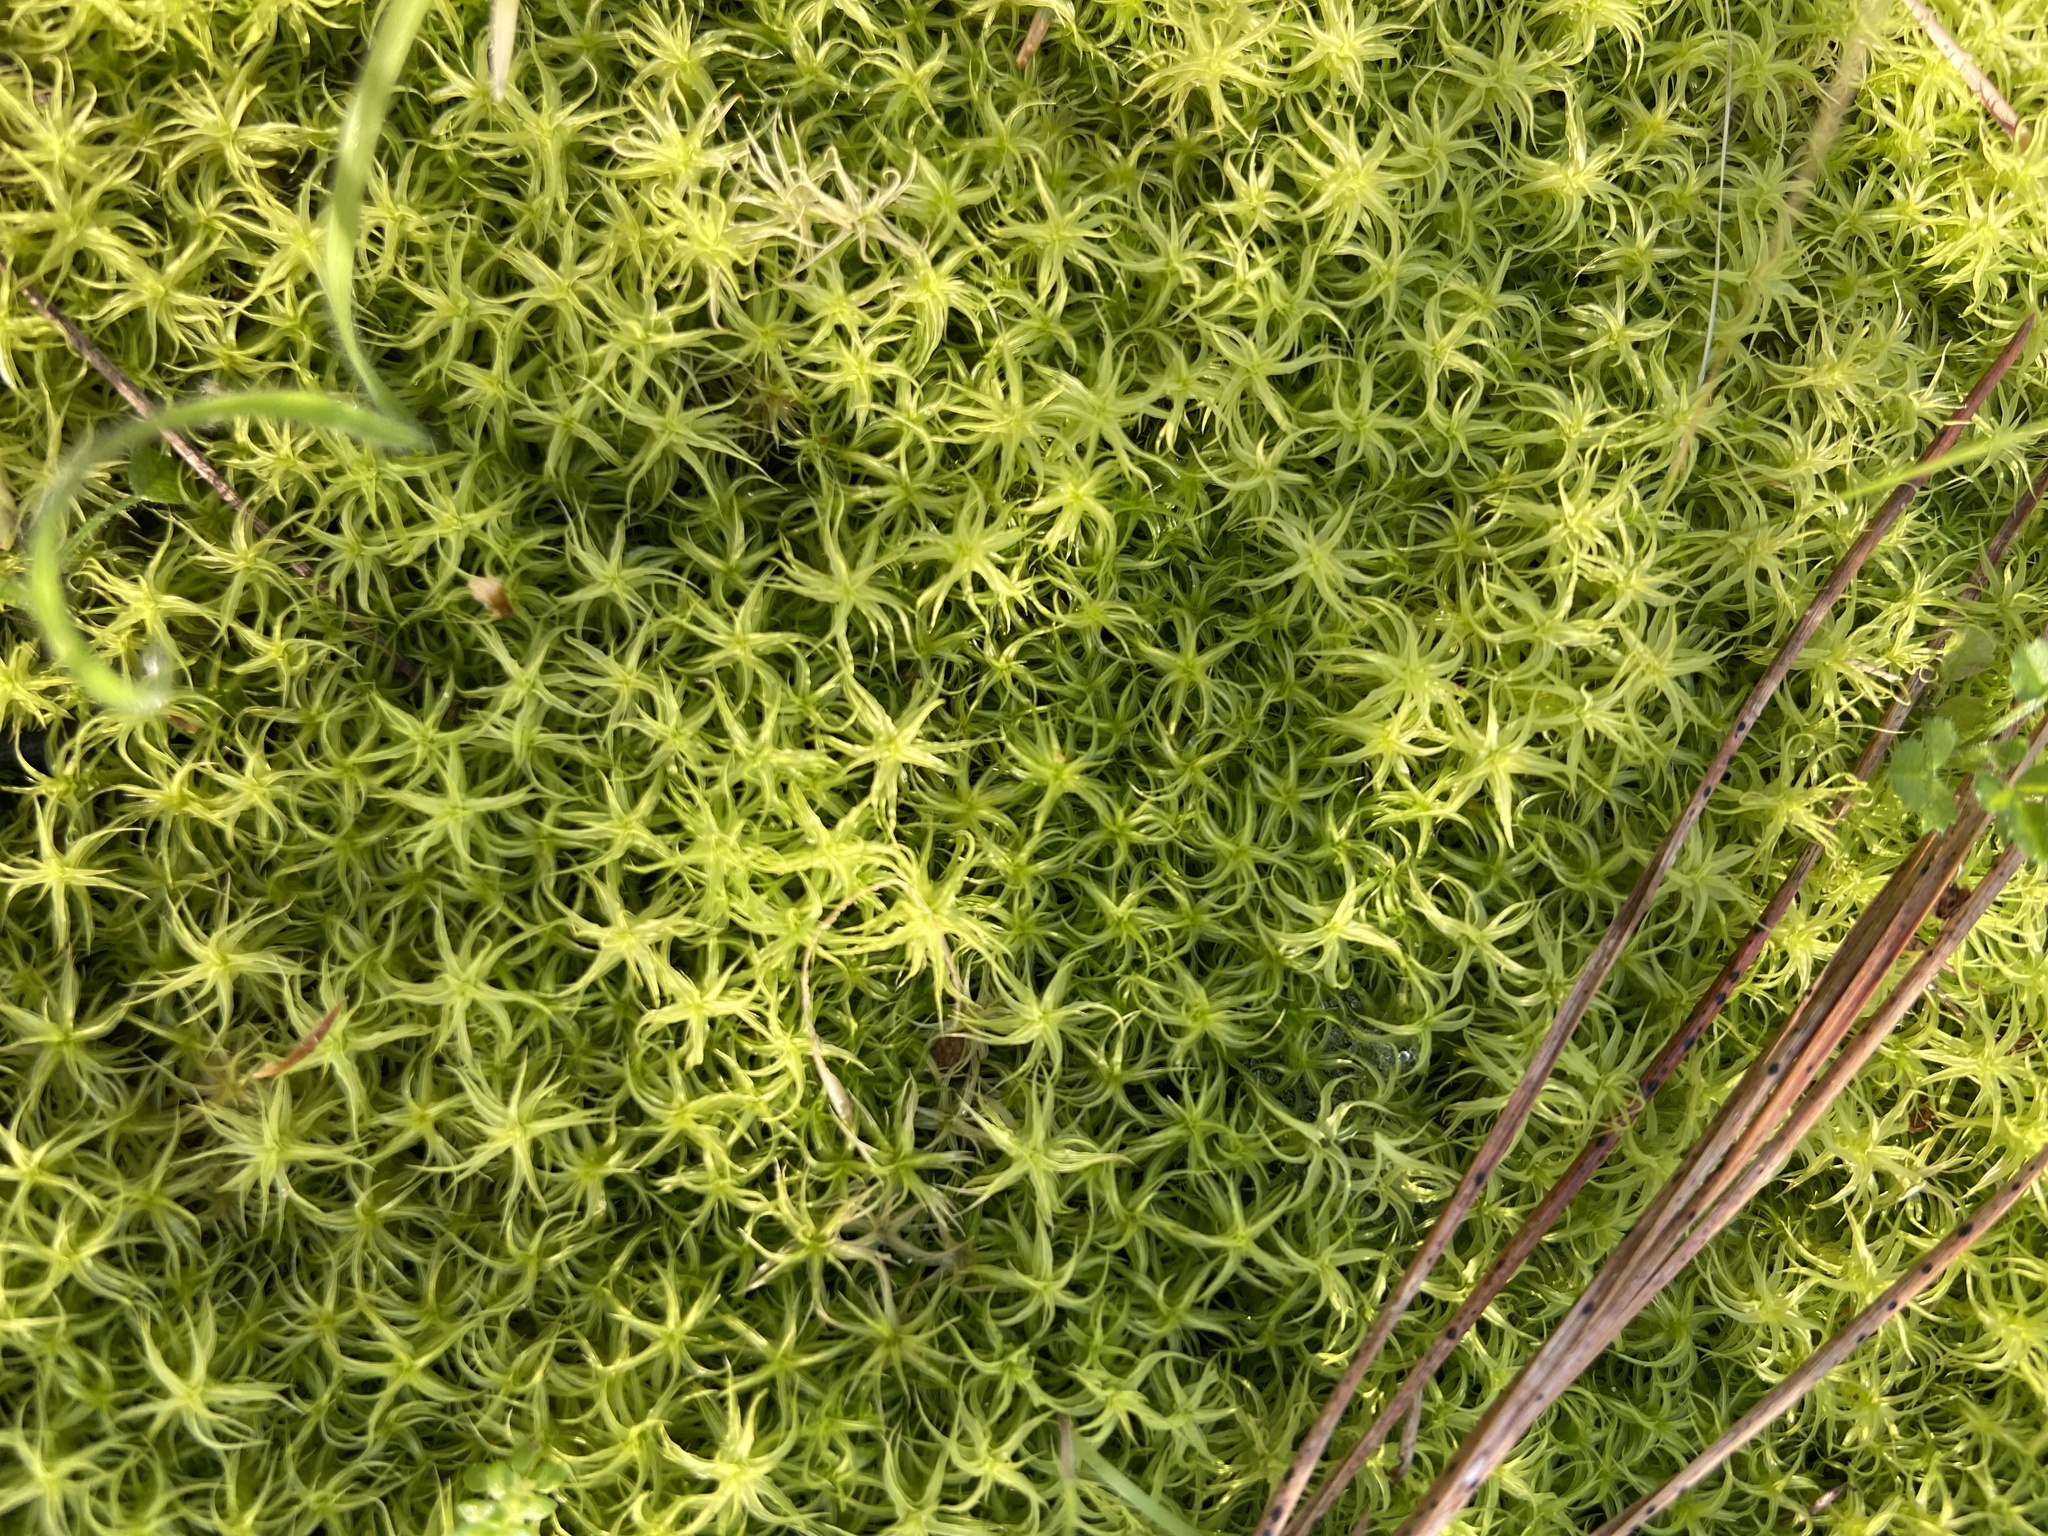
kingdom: Plantae
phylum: Bryophyta
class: Bryopsida
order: Pottiales
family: Pottiaceae
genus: Pleurochaete
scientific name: Pleurochaete squarrosa
